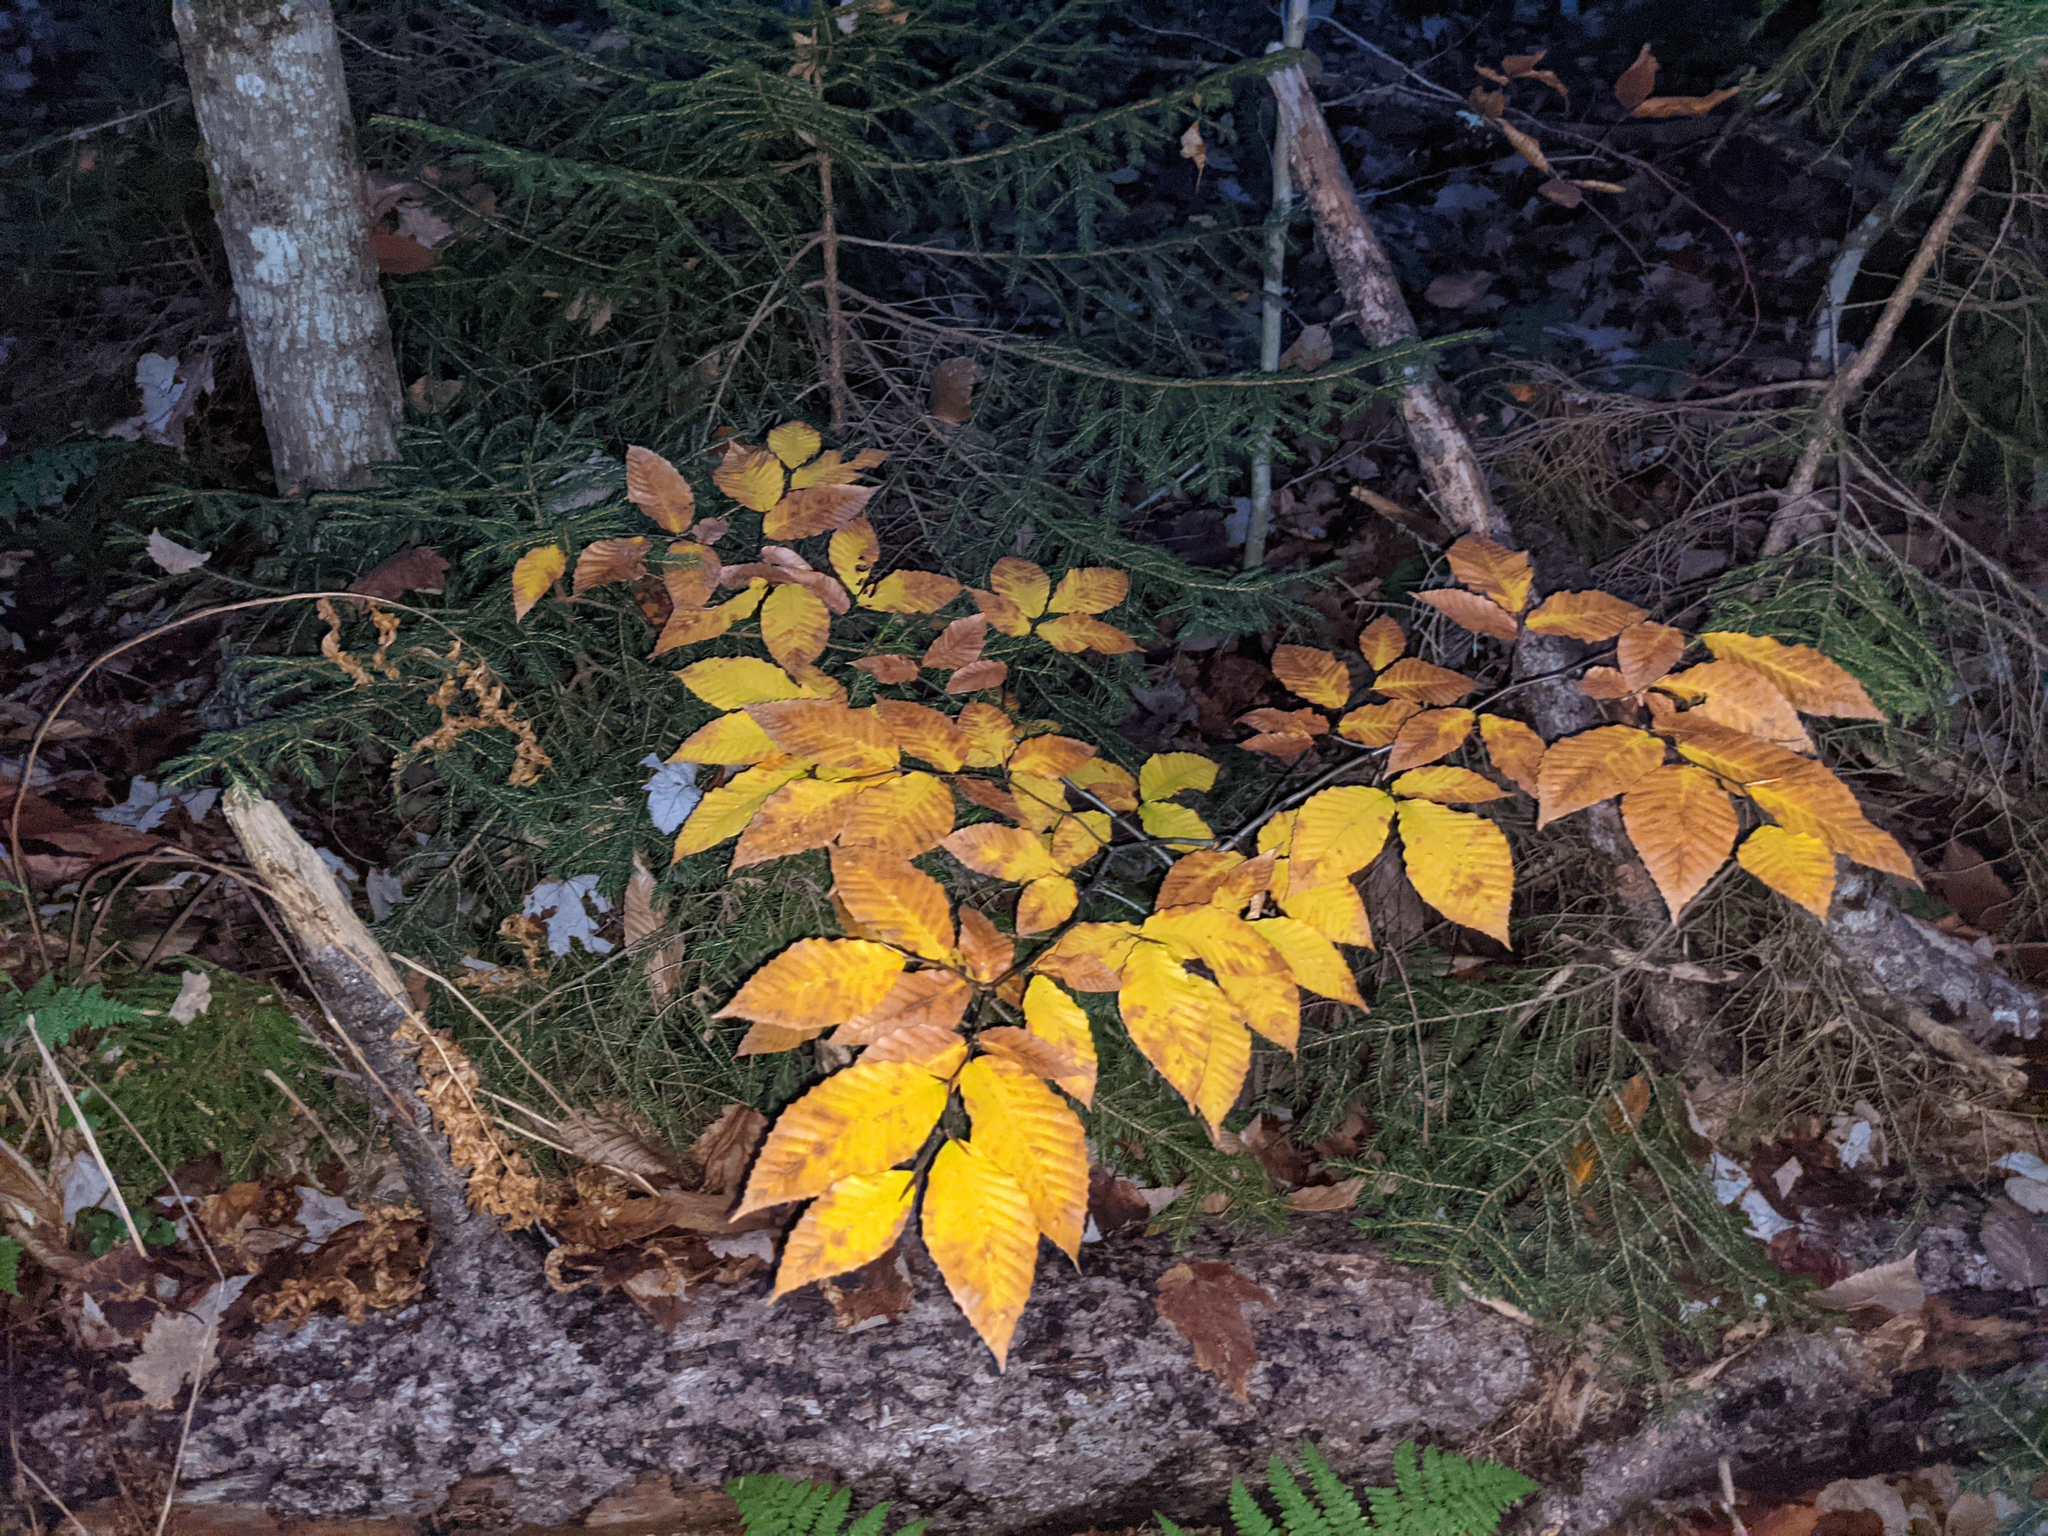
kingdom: Plantae
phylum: Tracheophyta
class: Magnoliopsida
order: Fagales
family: Fagaceae
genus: Fagus
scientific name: Fagus grandifolia
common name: American beech
